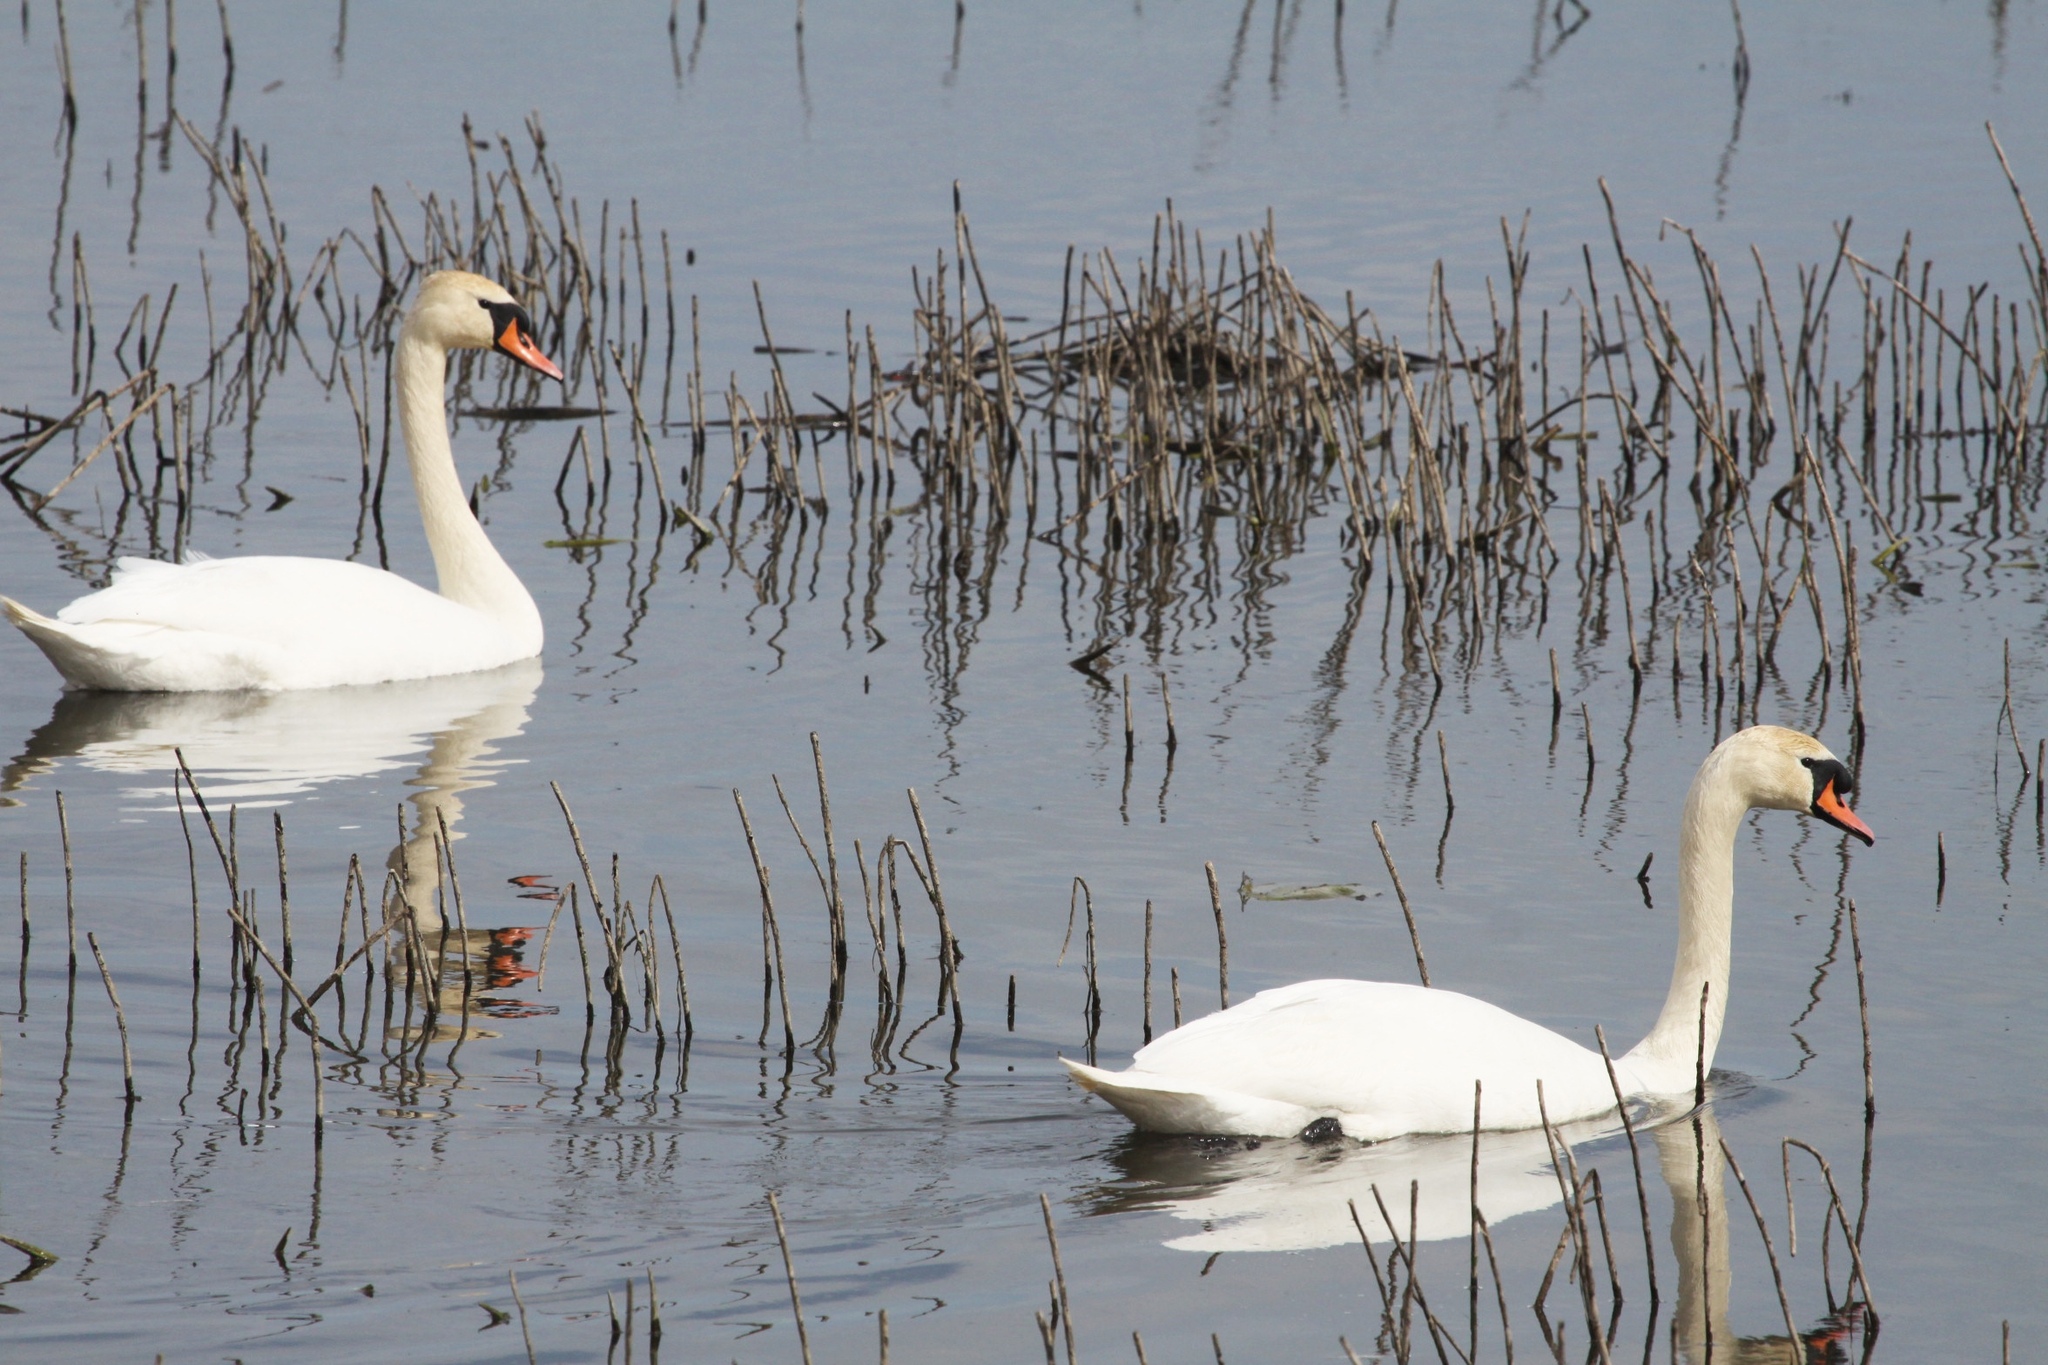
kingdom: Animalia
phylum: Chordata
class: Aves
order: Anseriformes
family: Anatidae
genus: Cygnus
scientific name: Cygnus olor
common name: Mute swan
